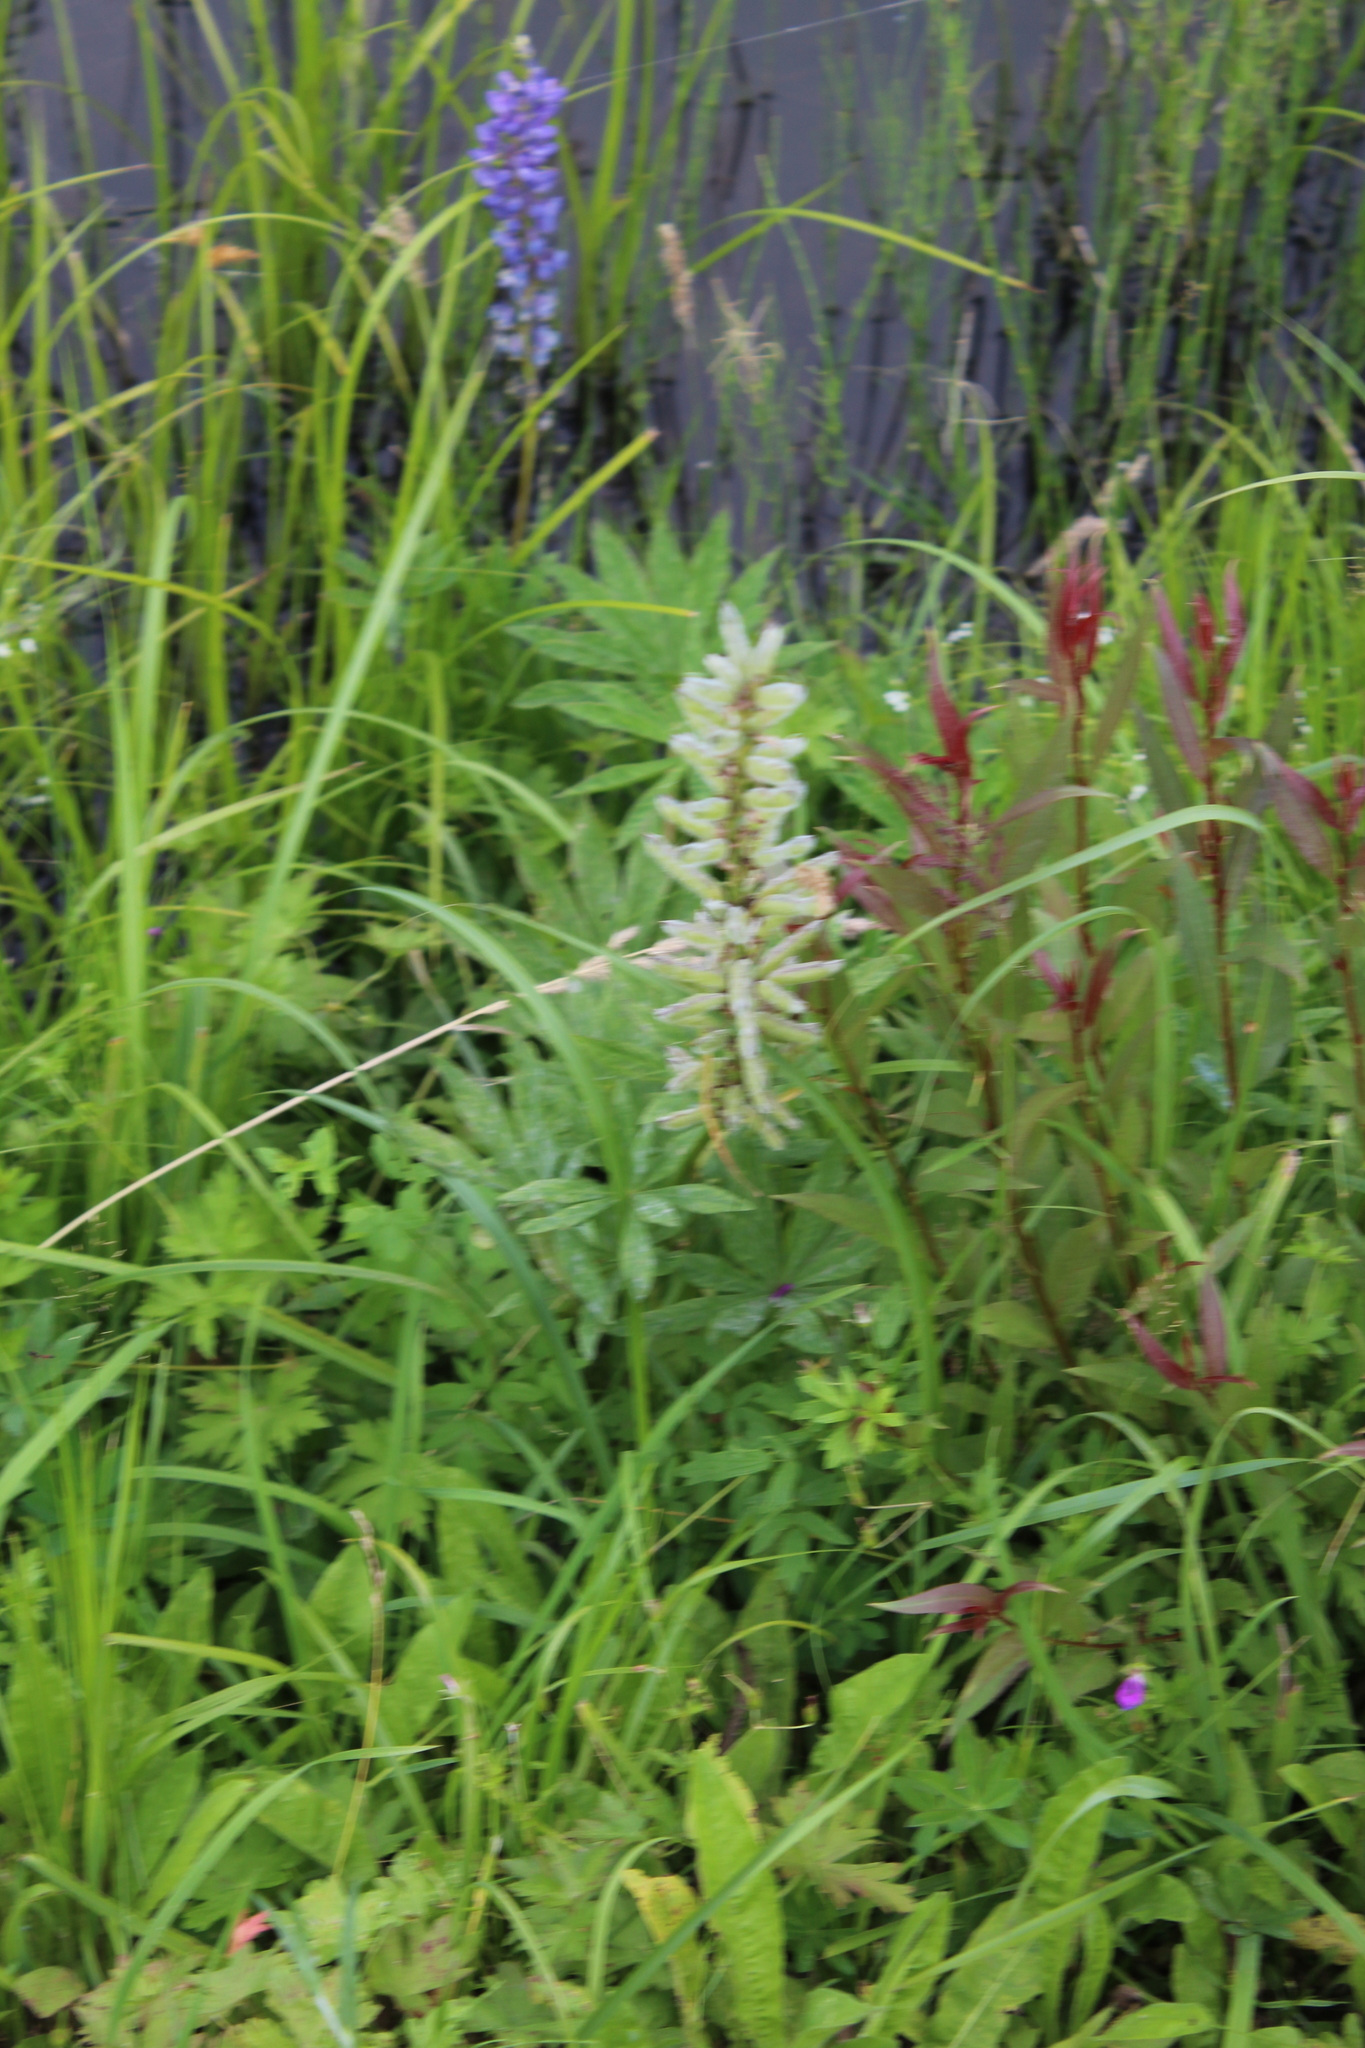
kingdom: Plantae
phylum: Tracheophyta
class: Magnoliopsida
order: Fabales
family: Fabaceae
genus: Lupinus
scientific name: Lupinus polyphyllus
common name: Garden lupin
